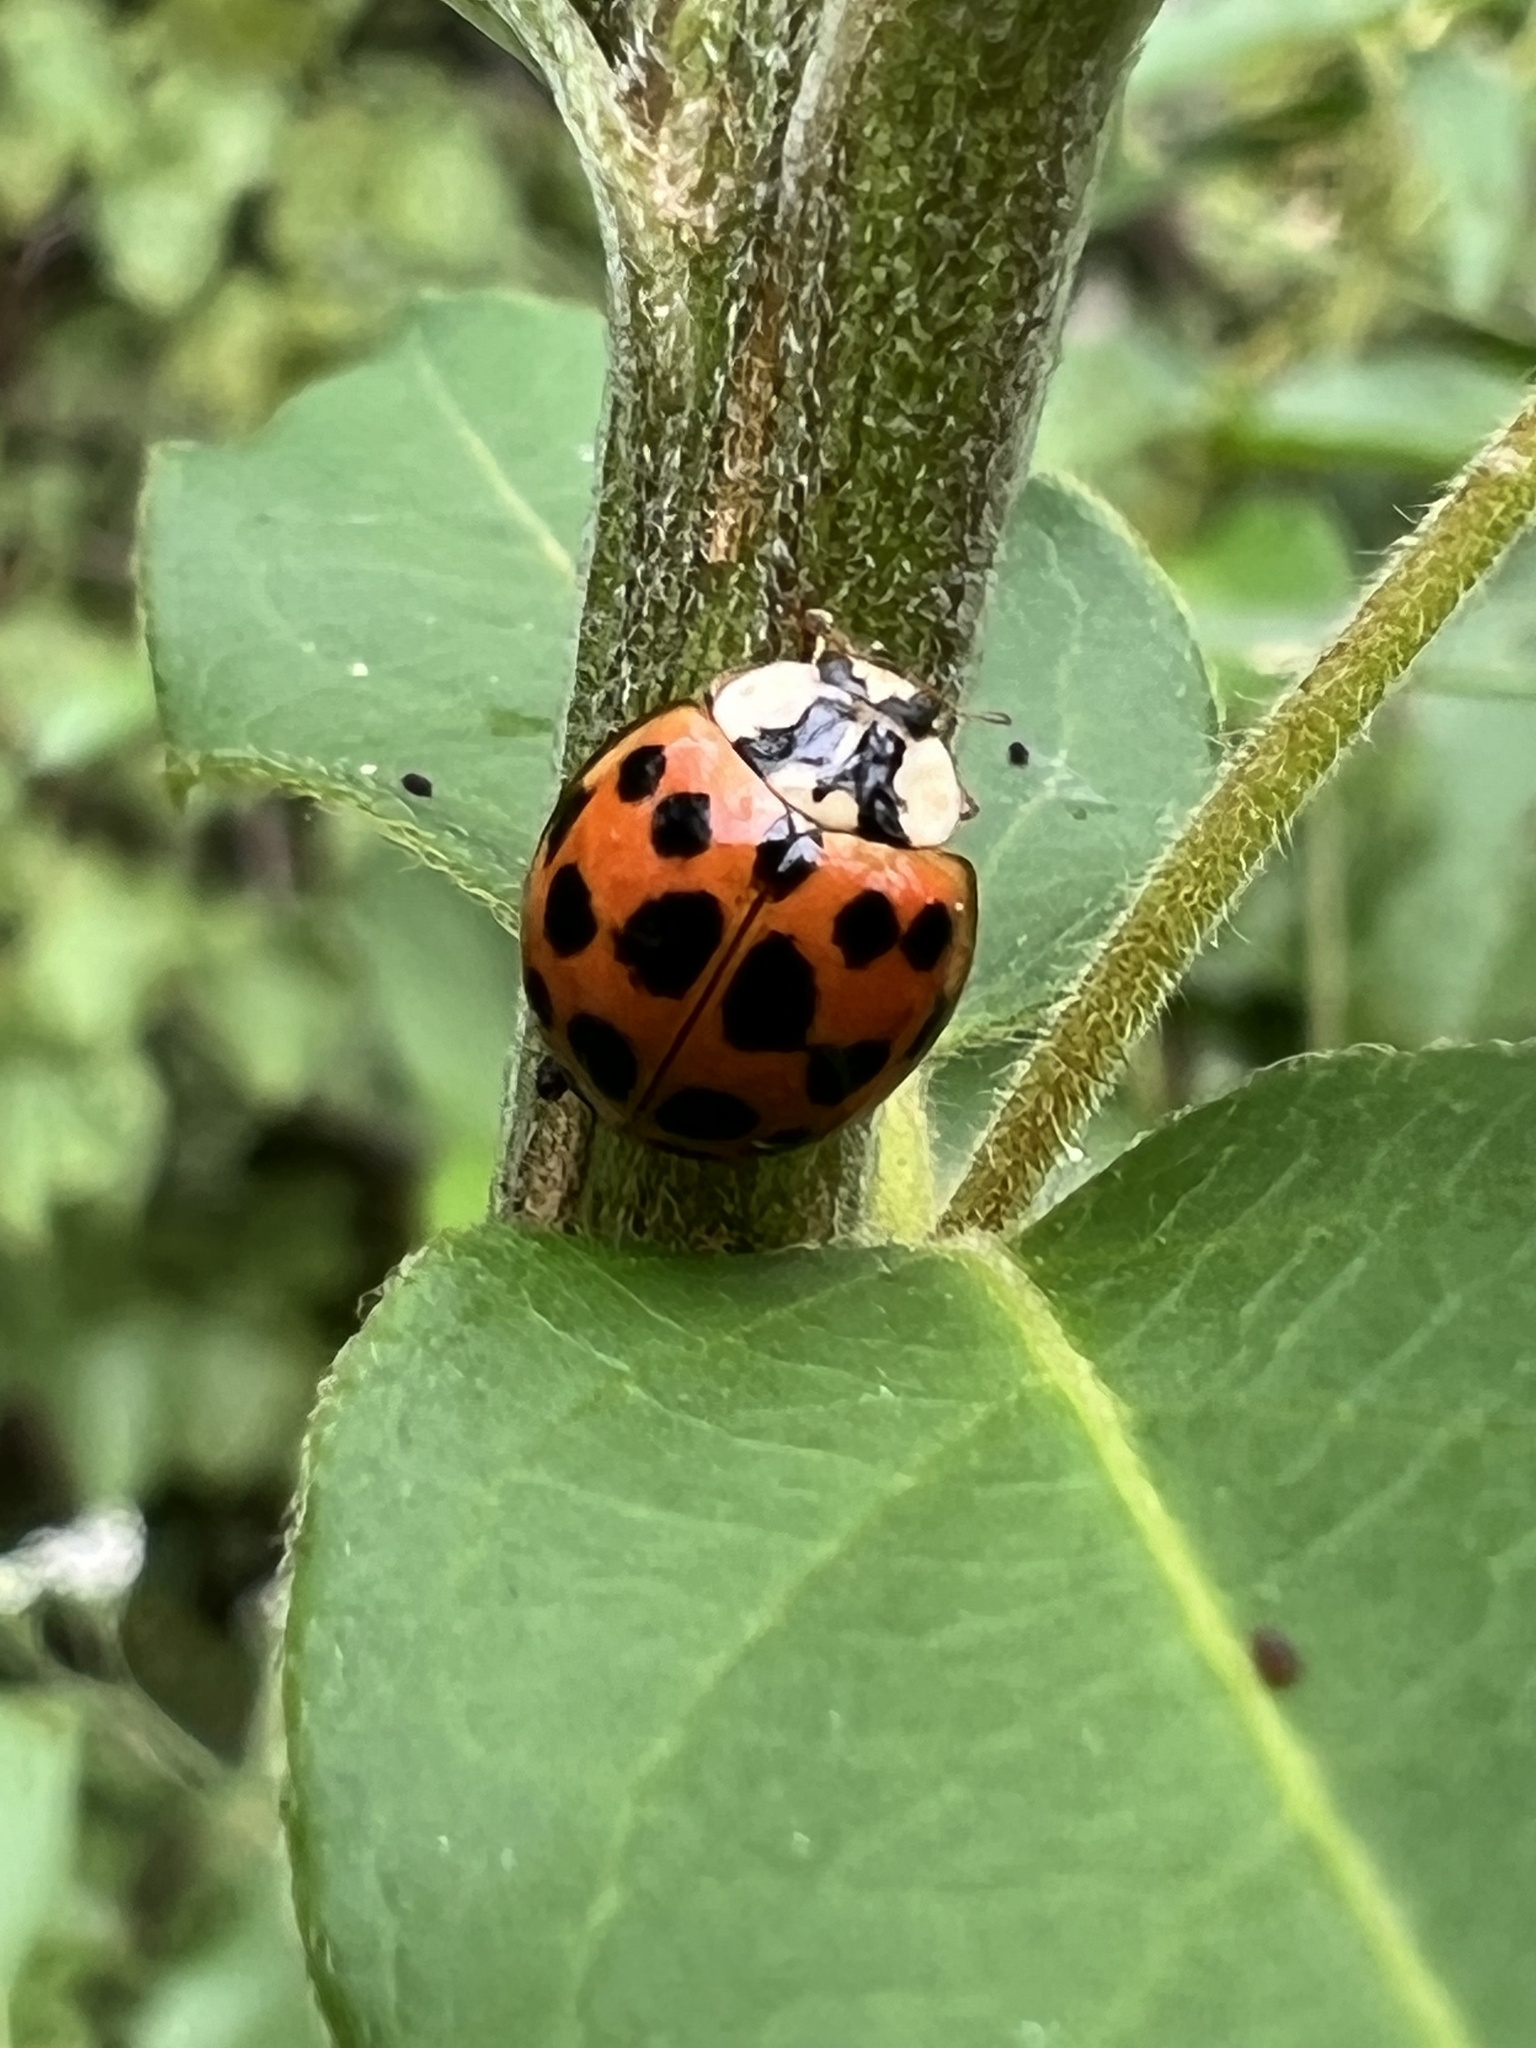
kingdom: Animalia
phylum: Arthropoda
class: Insecta
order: Coleoptera
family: Coccinellidae
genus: Harmonia
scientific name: Harmonia axyridis
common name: Harlequin ladybird
